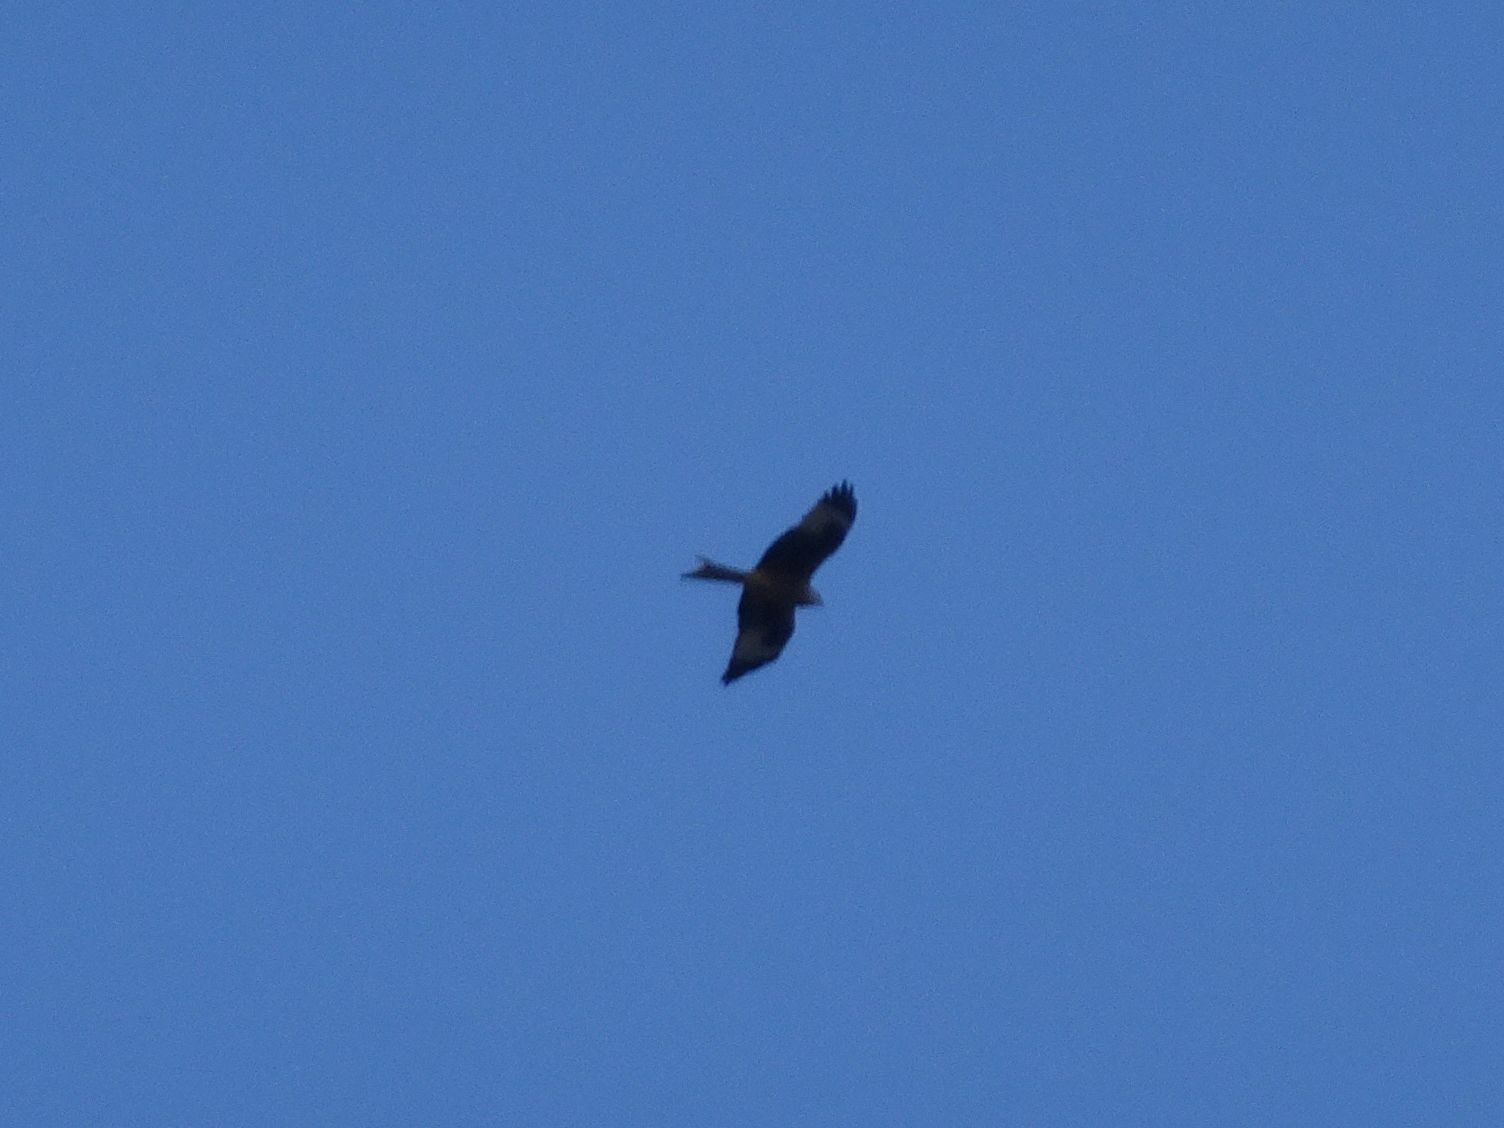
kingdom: Animalia
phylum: Chordata
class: Aves
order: Accipitriformes
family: Accipitridae
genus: Milvus
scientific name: Milvus milvus
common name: Red kite
